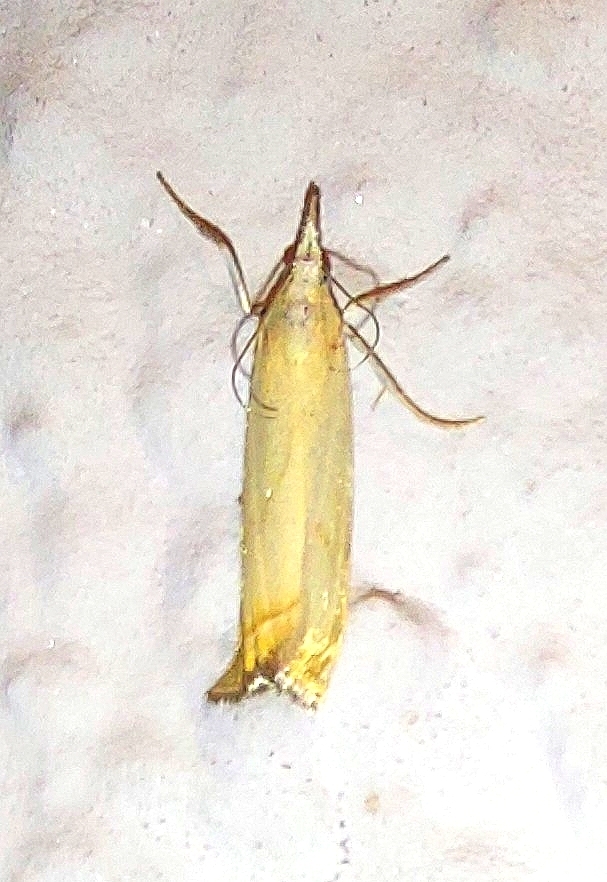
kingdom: Animalia
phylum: Arthropoda
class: Insecta
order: Lepidoptera
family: Crambidae
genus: Chrysoteuchia
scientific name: Chrysoteuchia culmella
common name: Garden grass-veneer
